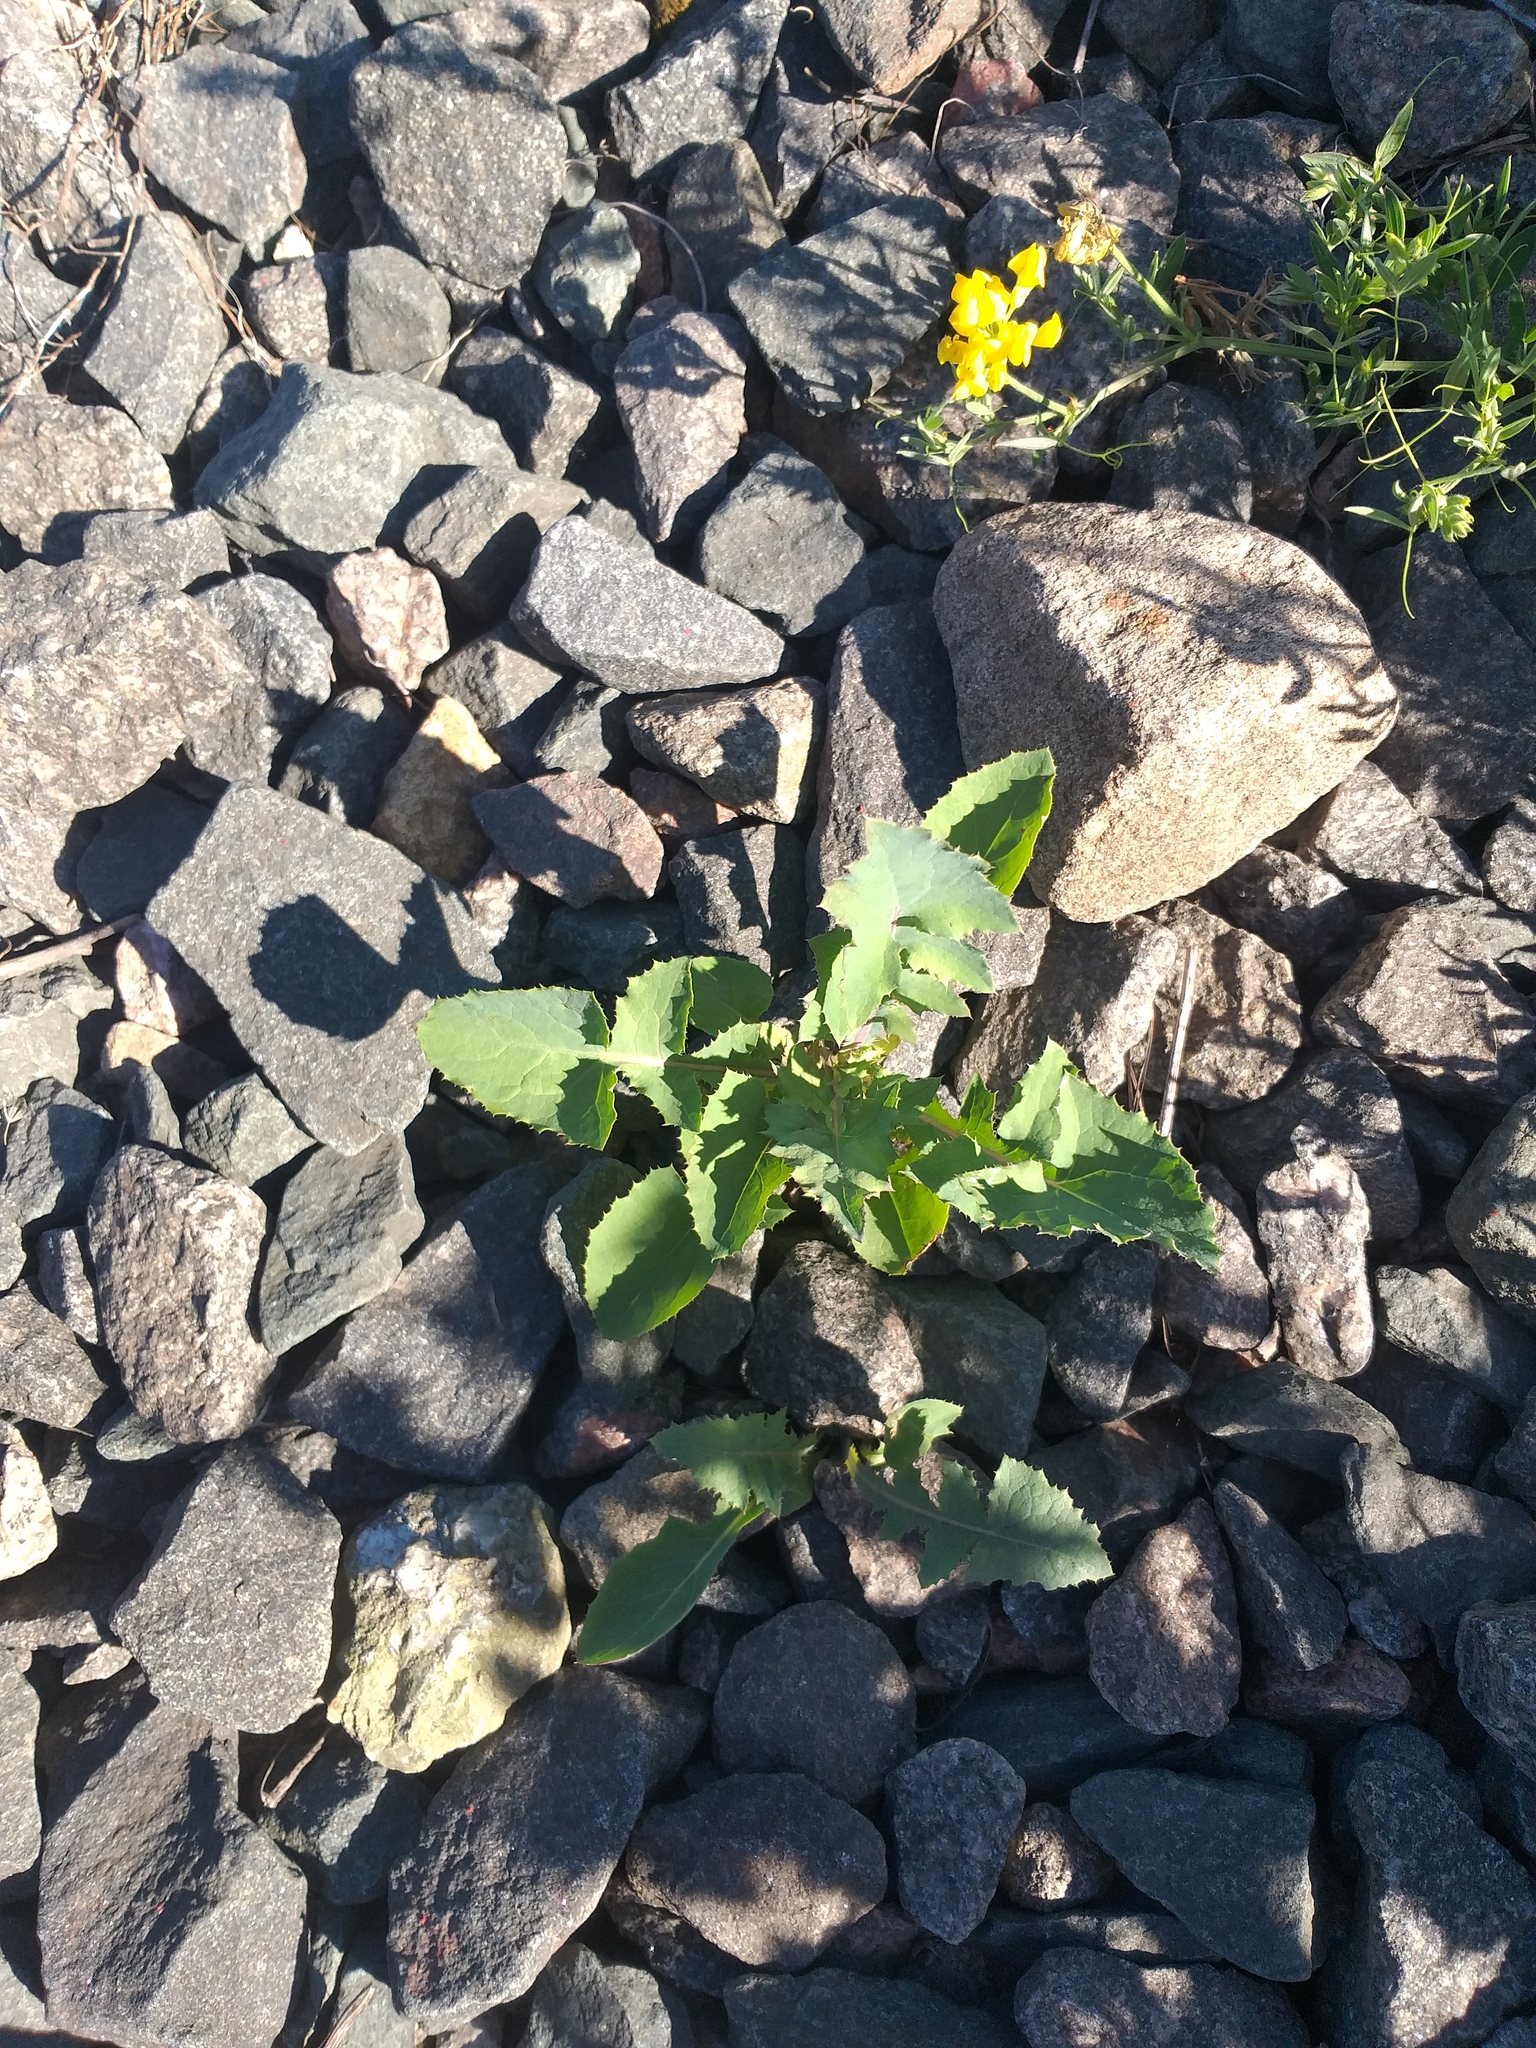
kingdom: Plantae
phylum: Tracheophyta
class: Magnoliopsida
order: Asterales
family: Asteraceae
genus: Sonchus
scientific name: Sonchus oleraceus
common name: Common sowthistle
